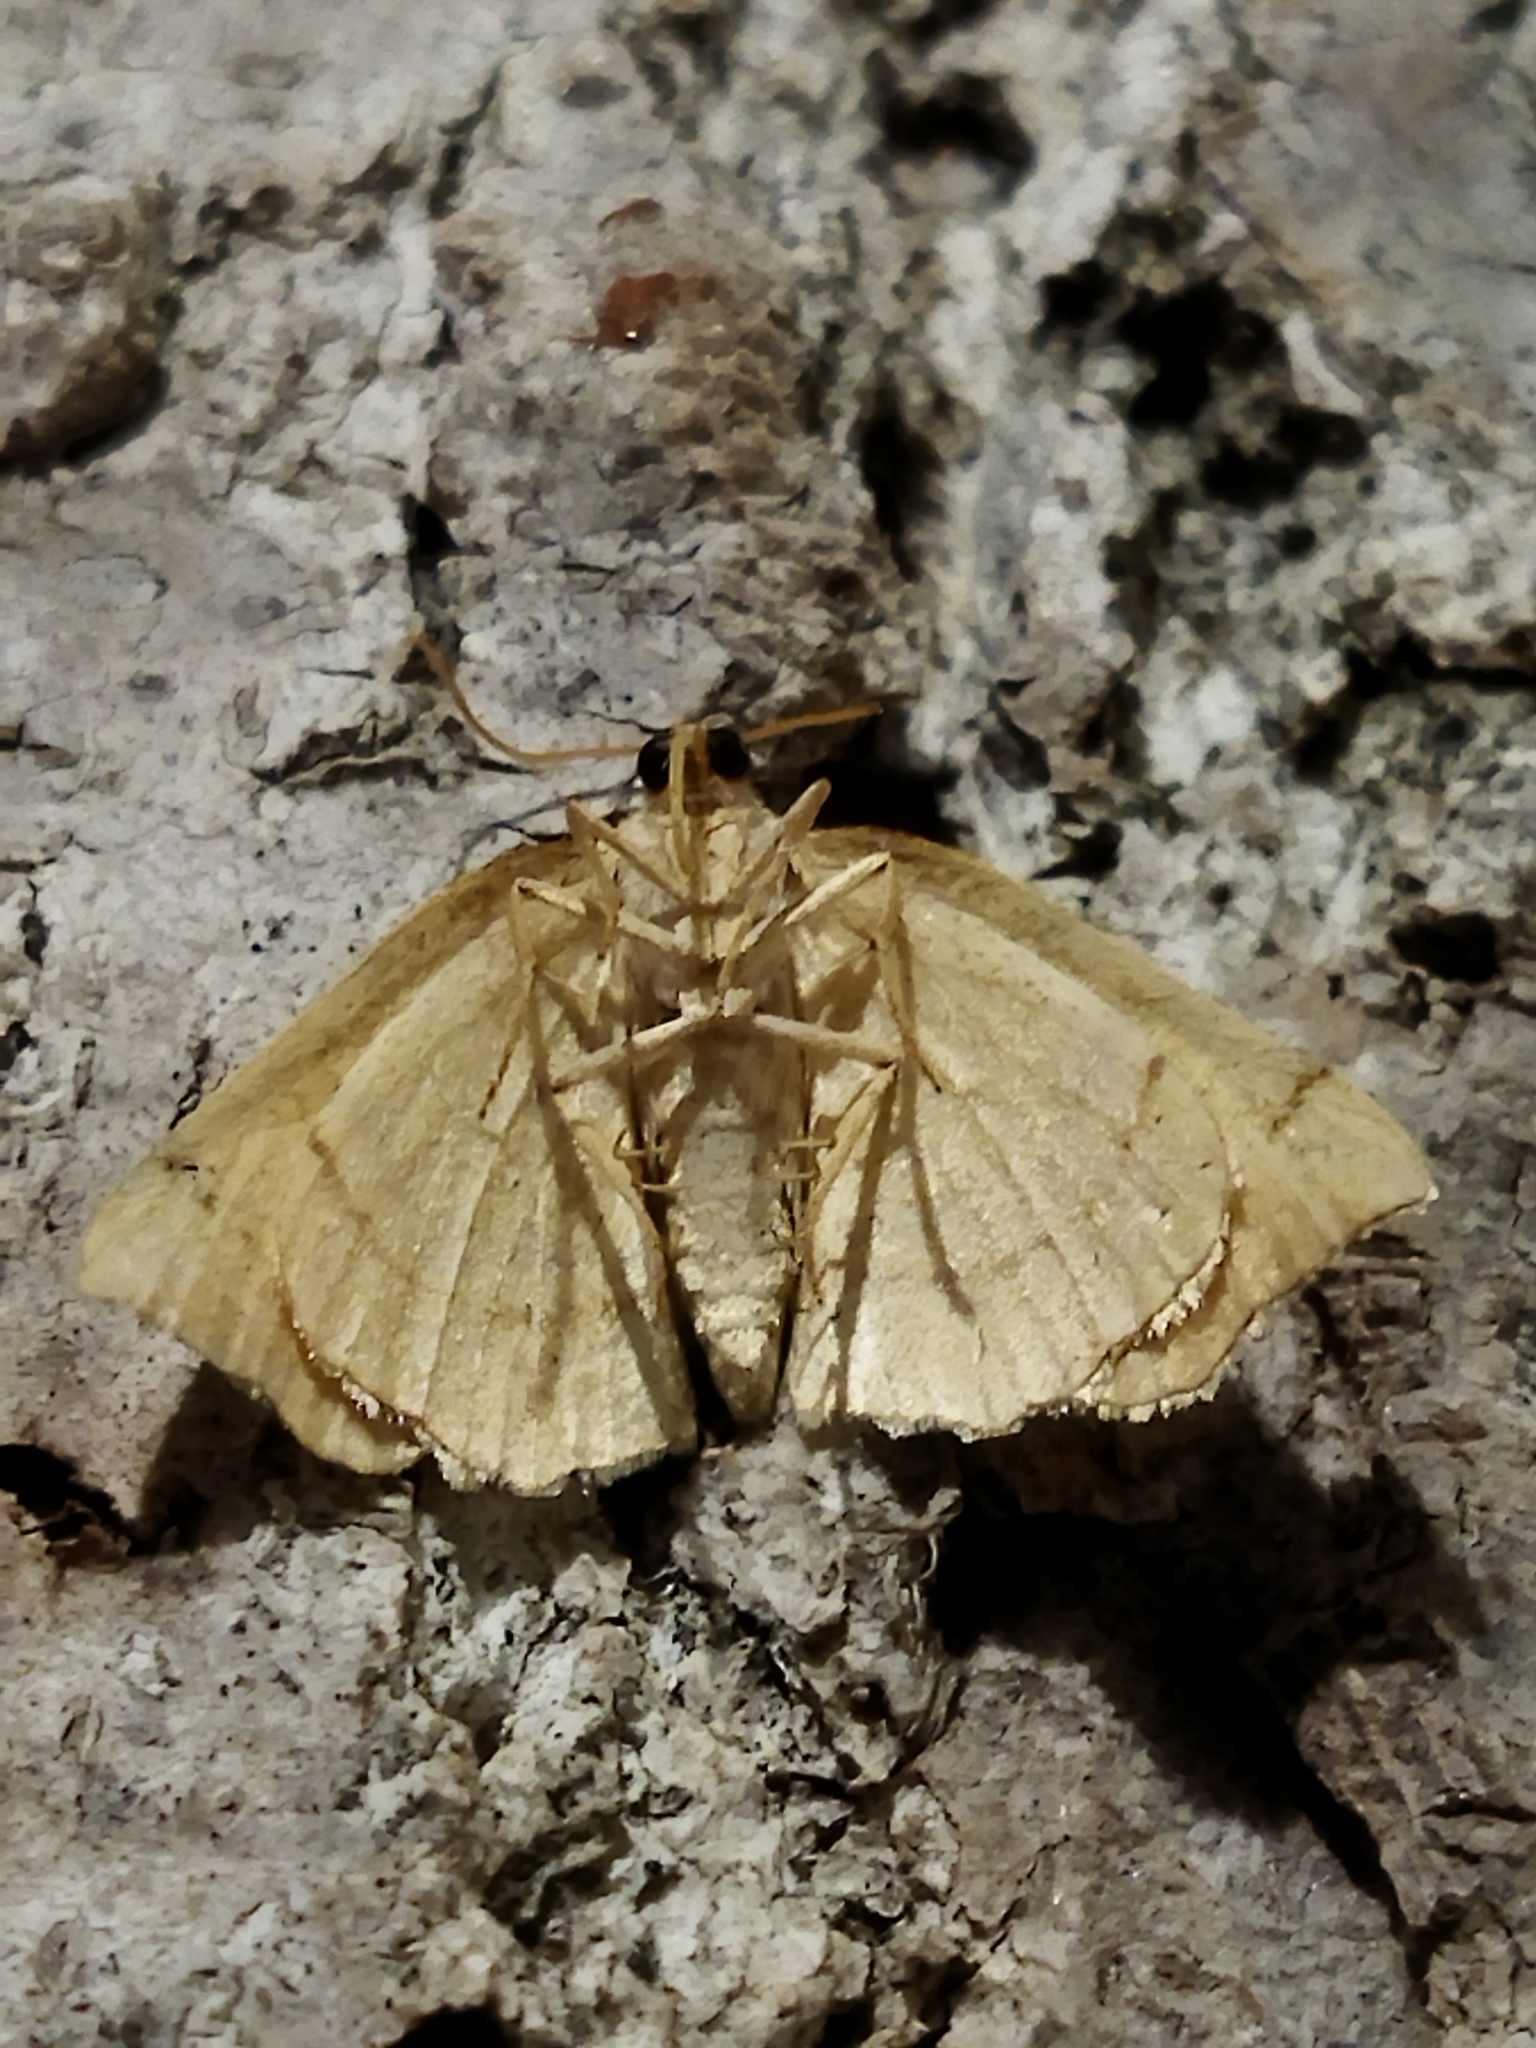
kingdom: Animalia
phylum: Arthropoda
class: Insecta
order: Lepidoptera
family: Geometridae
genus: Eilicrinia
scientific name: Eilicrinia trinotata
